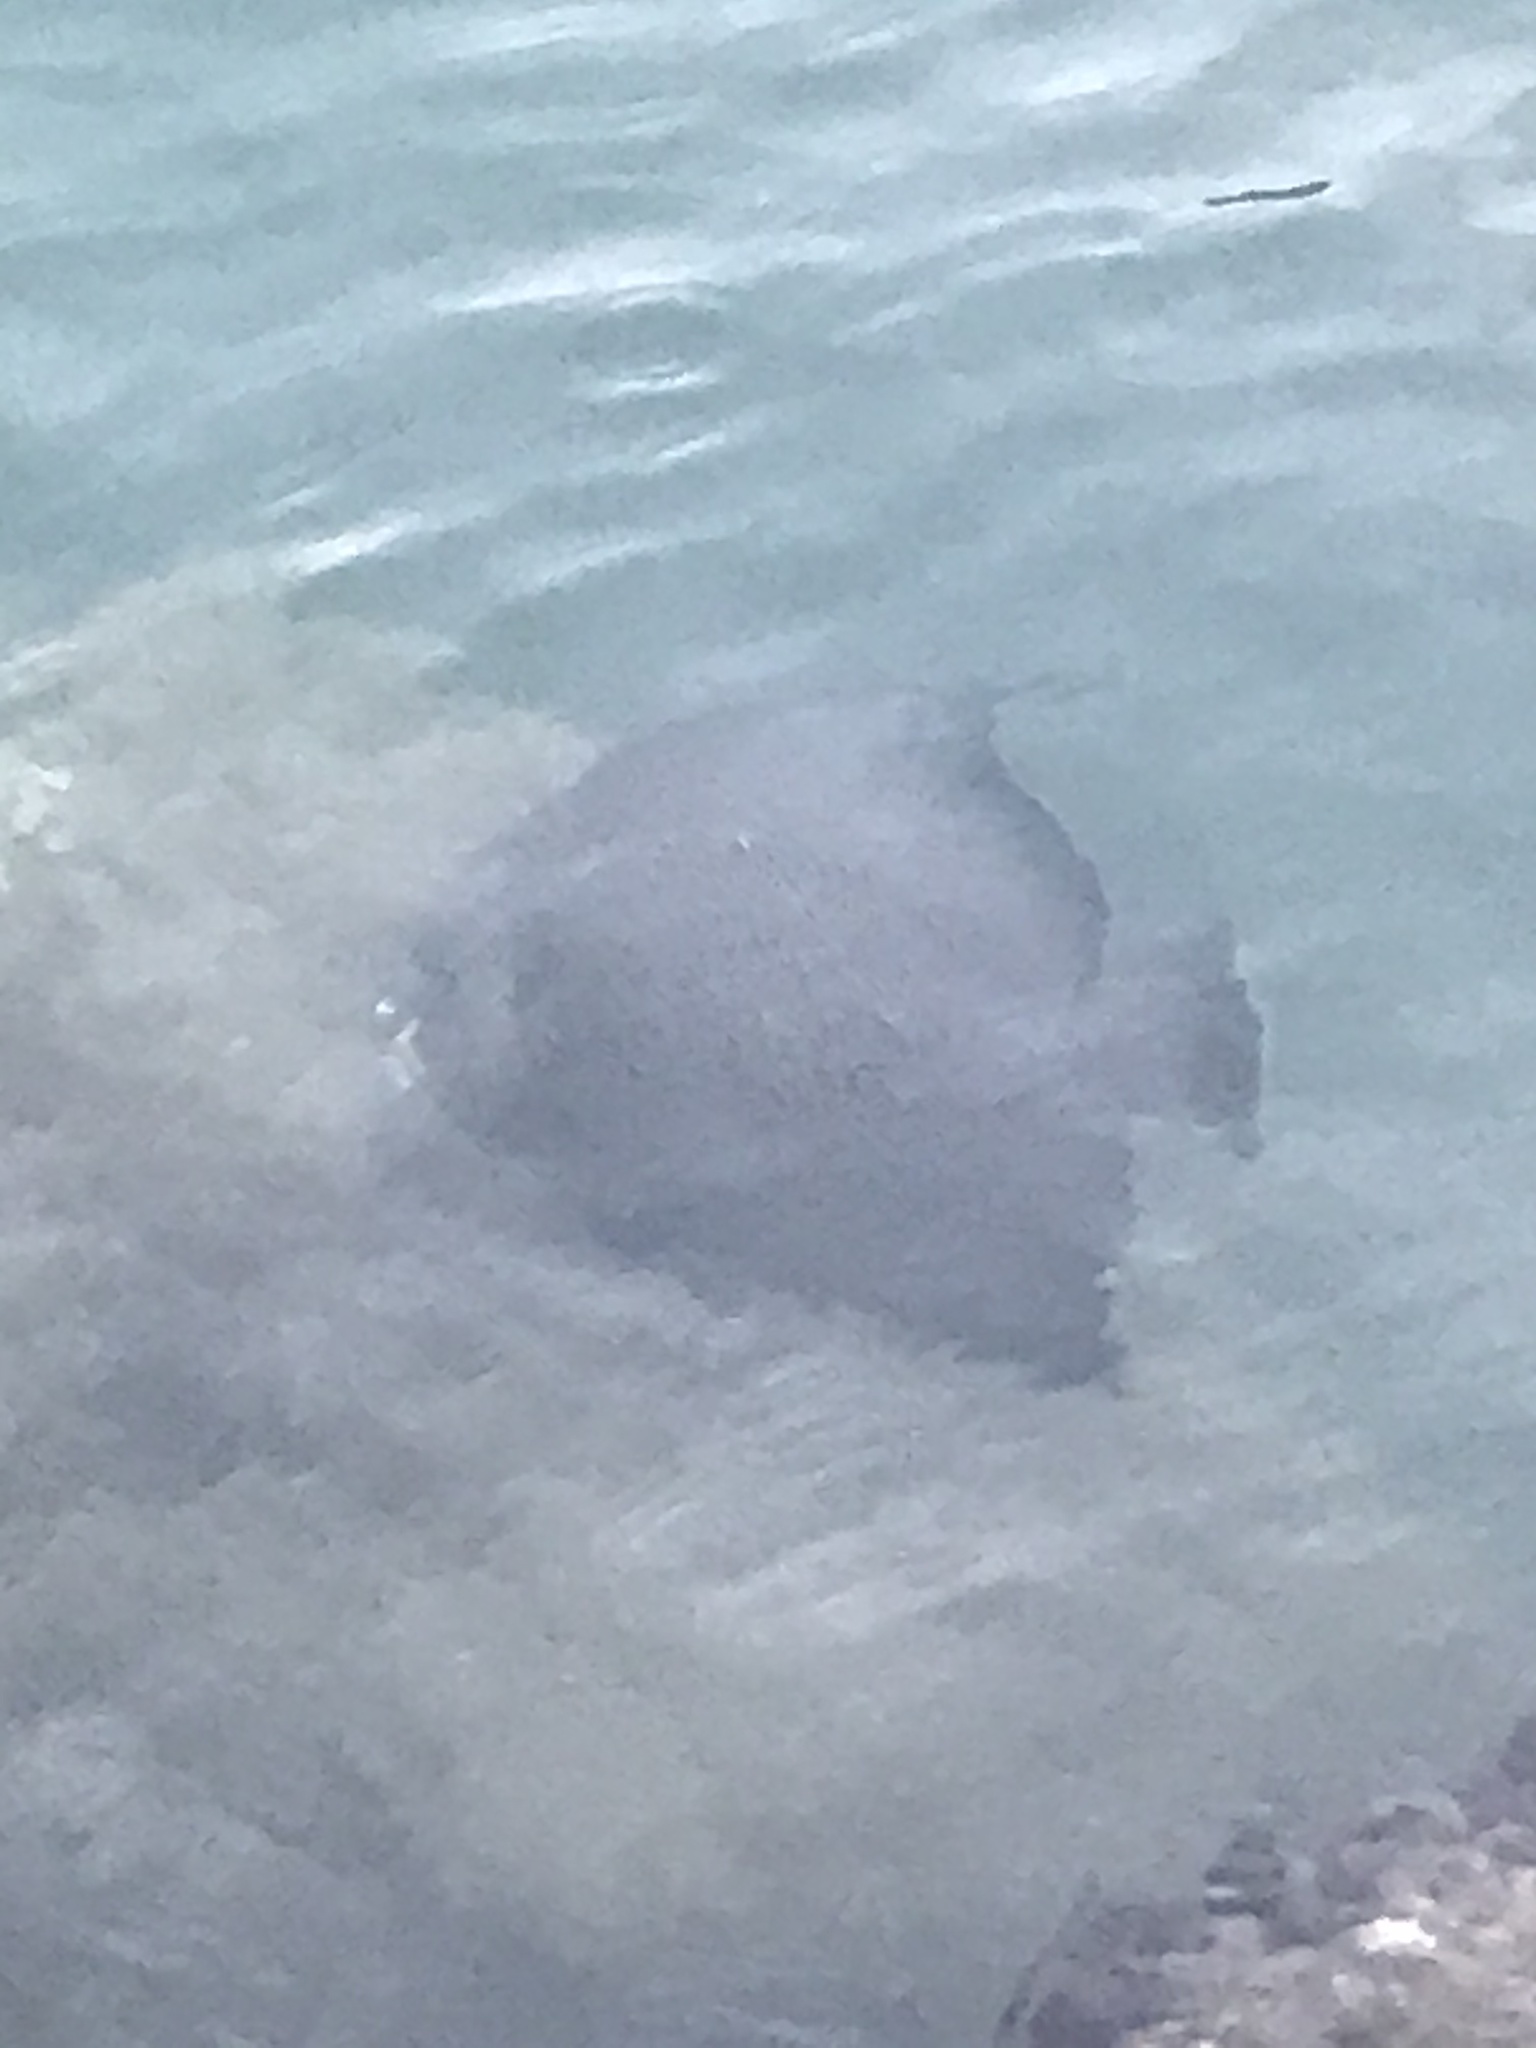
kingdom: Animalia
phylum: Chordata
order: Perciformes
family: Pomacanthidae
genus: Pomacanthus
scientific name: Pomacanthus arcuatus
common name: Gray angelfish
